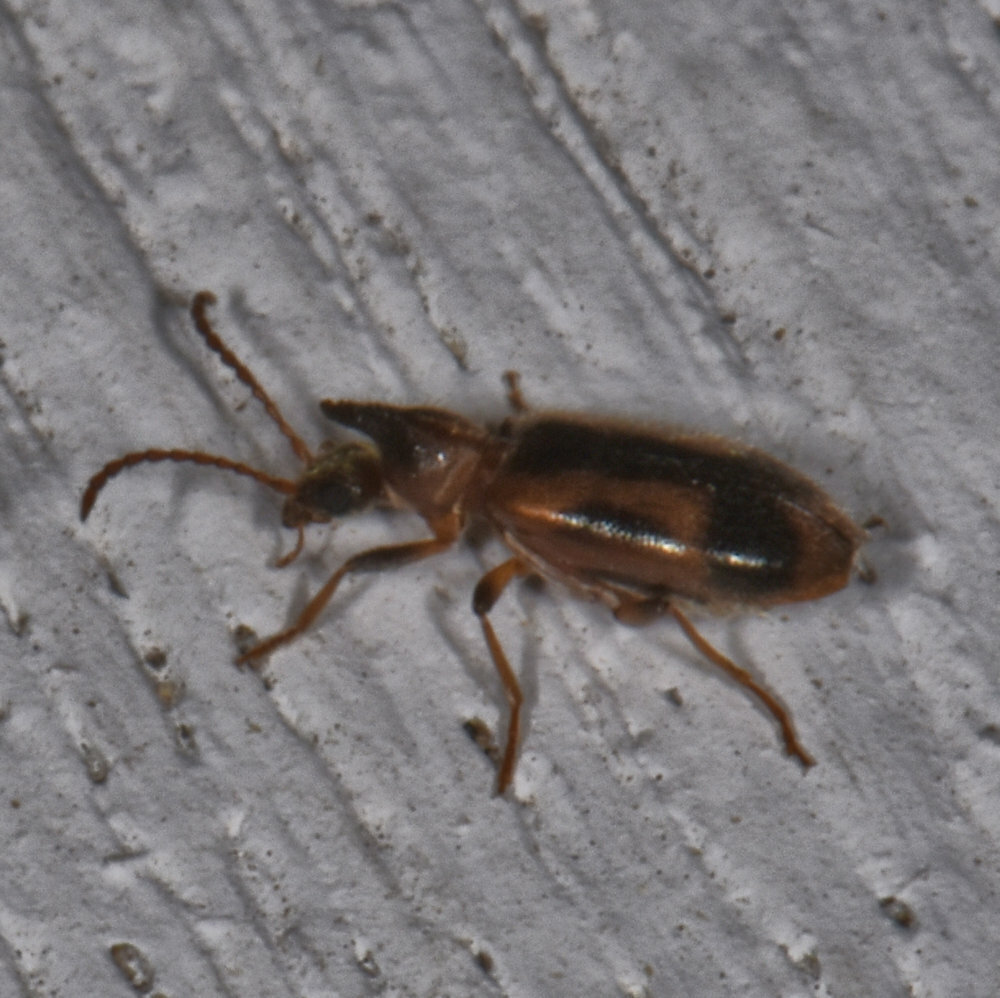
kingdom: Animalia
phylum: Arthropoda
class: Insecta
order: Coleoptera
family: Anthicidae
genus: Notoxus
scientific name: Notoxus anchora
